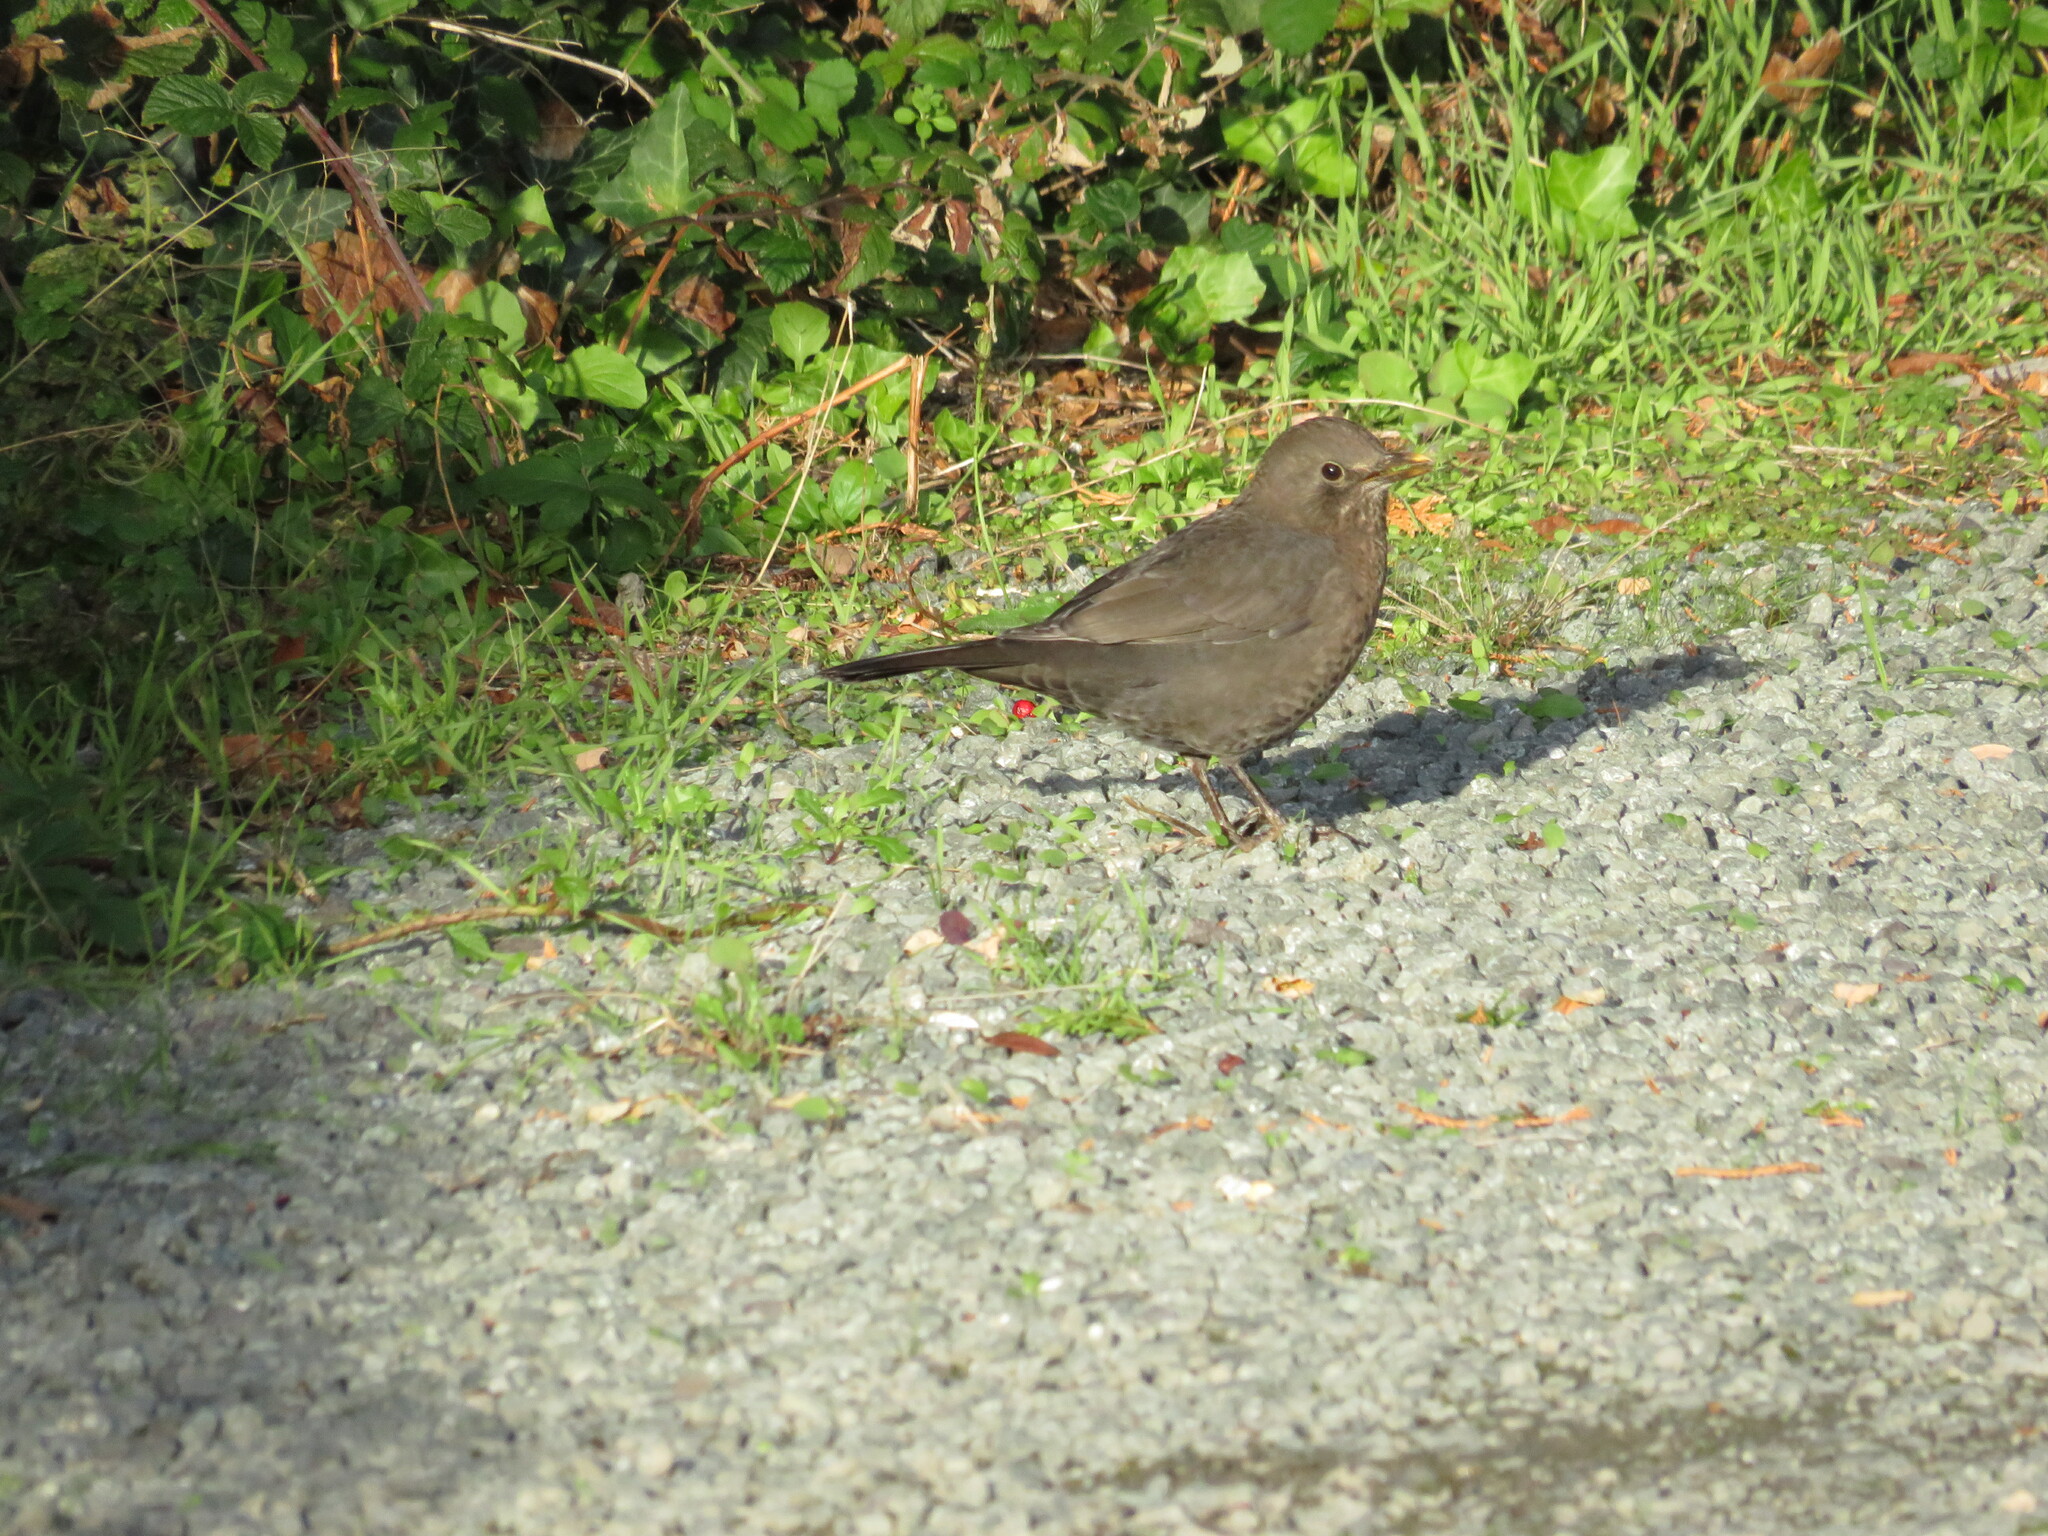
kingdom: Animalia
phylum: Chordata
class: Aves
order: Passeriformes
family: Turdidae
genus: Turdus
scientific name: Turdus merula
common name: Common blackbird
